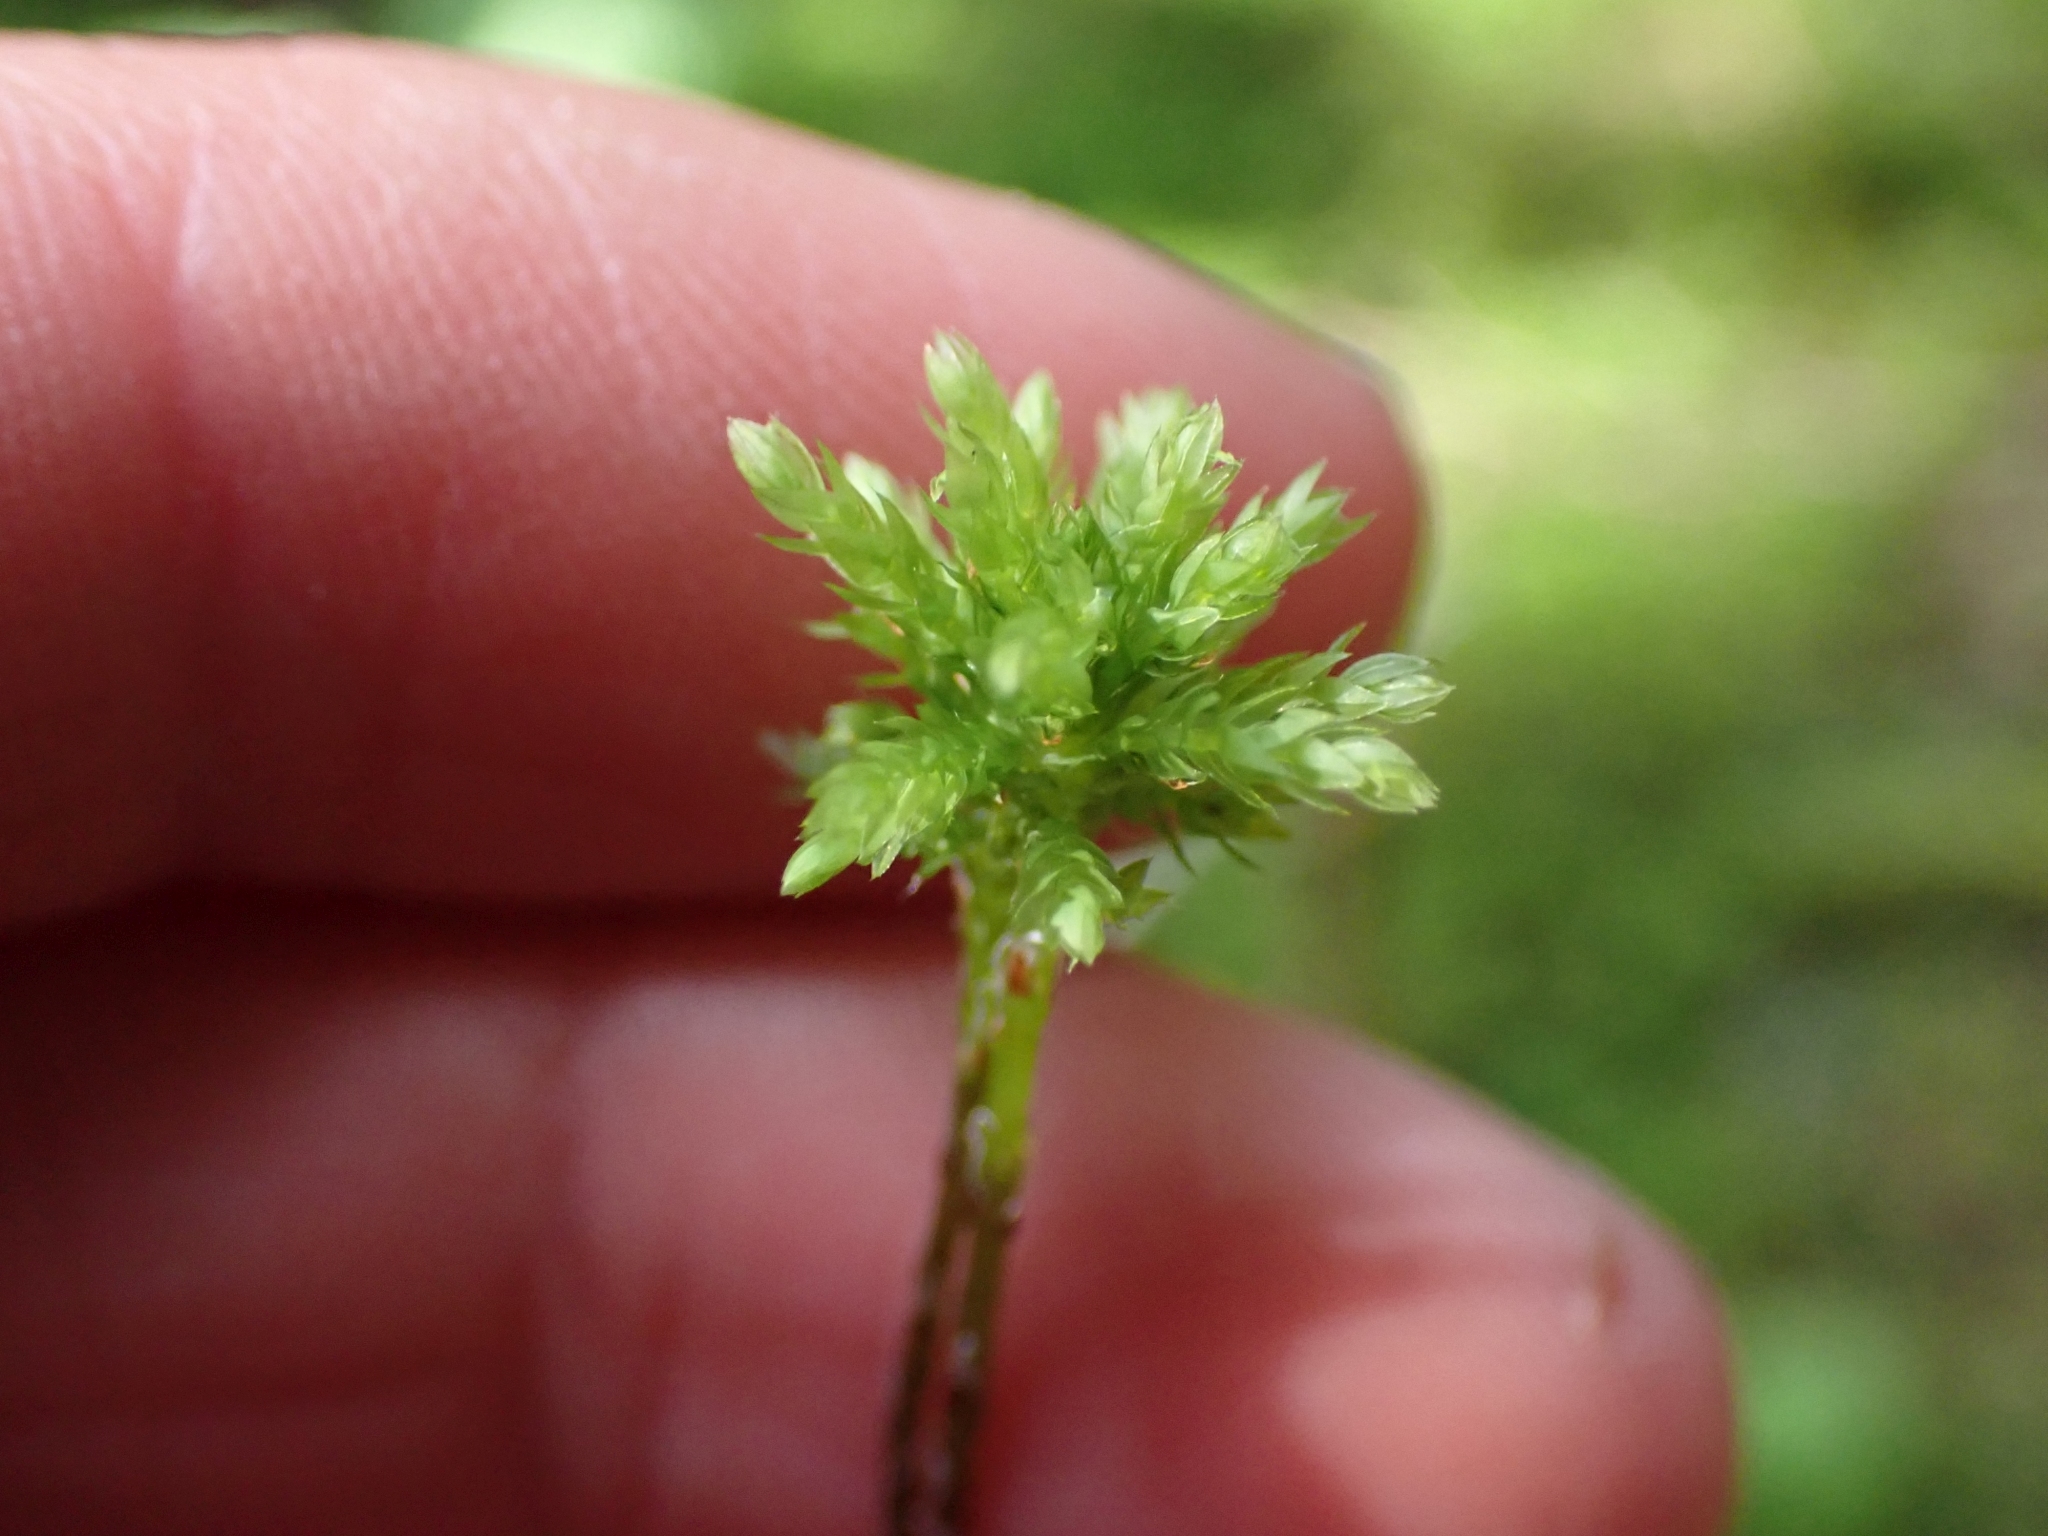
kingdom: Plantae
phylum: Bryophyta
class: Bryopsida
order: Bryales
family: Mniaceae
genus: Leucolepis
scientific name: Leucolepis acanthoneura
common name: Leucolepis umbrella moss
